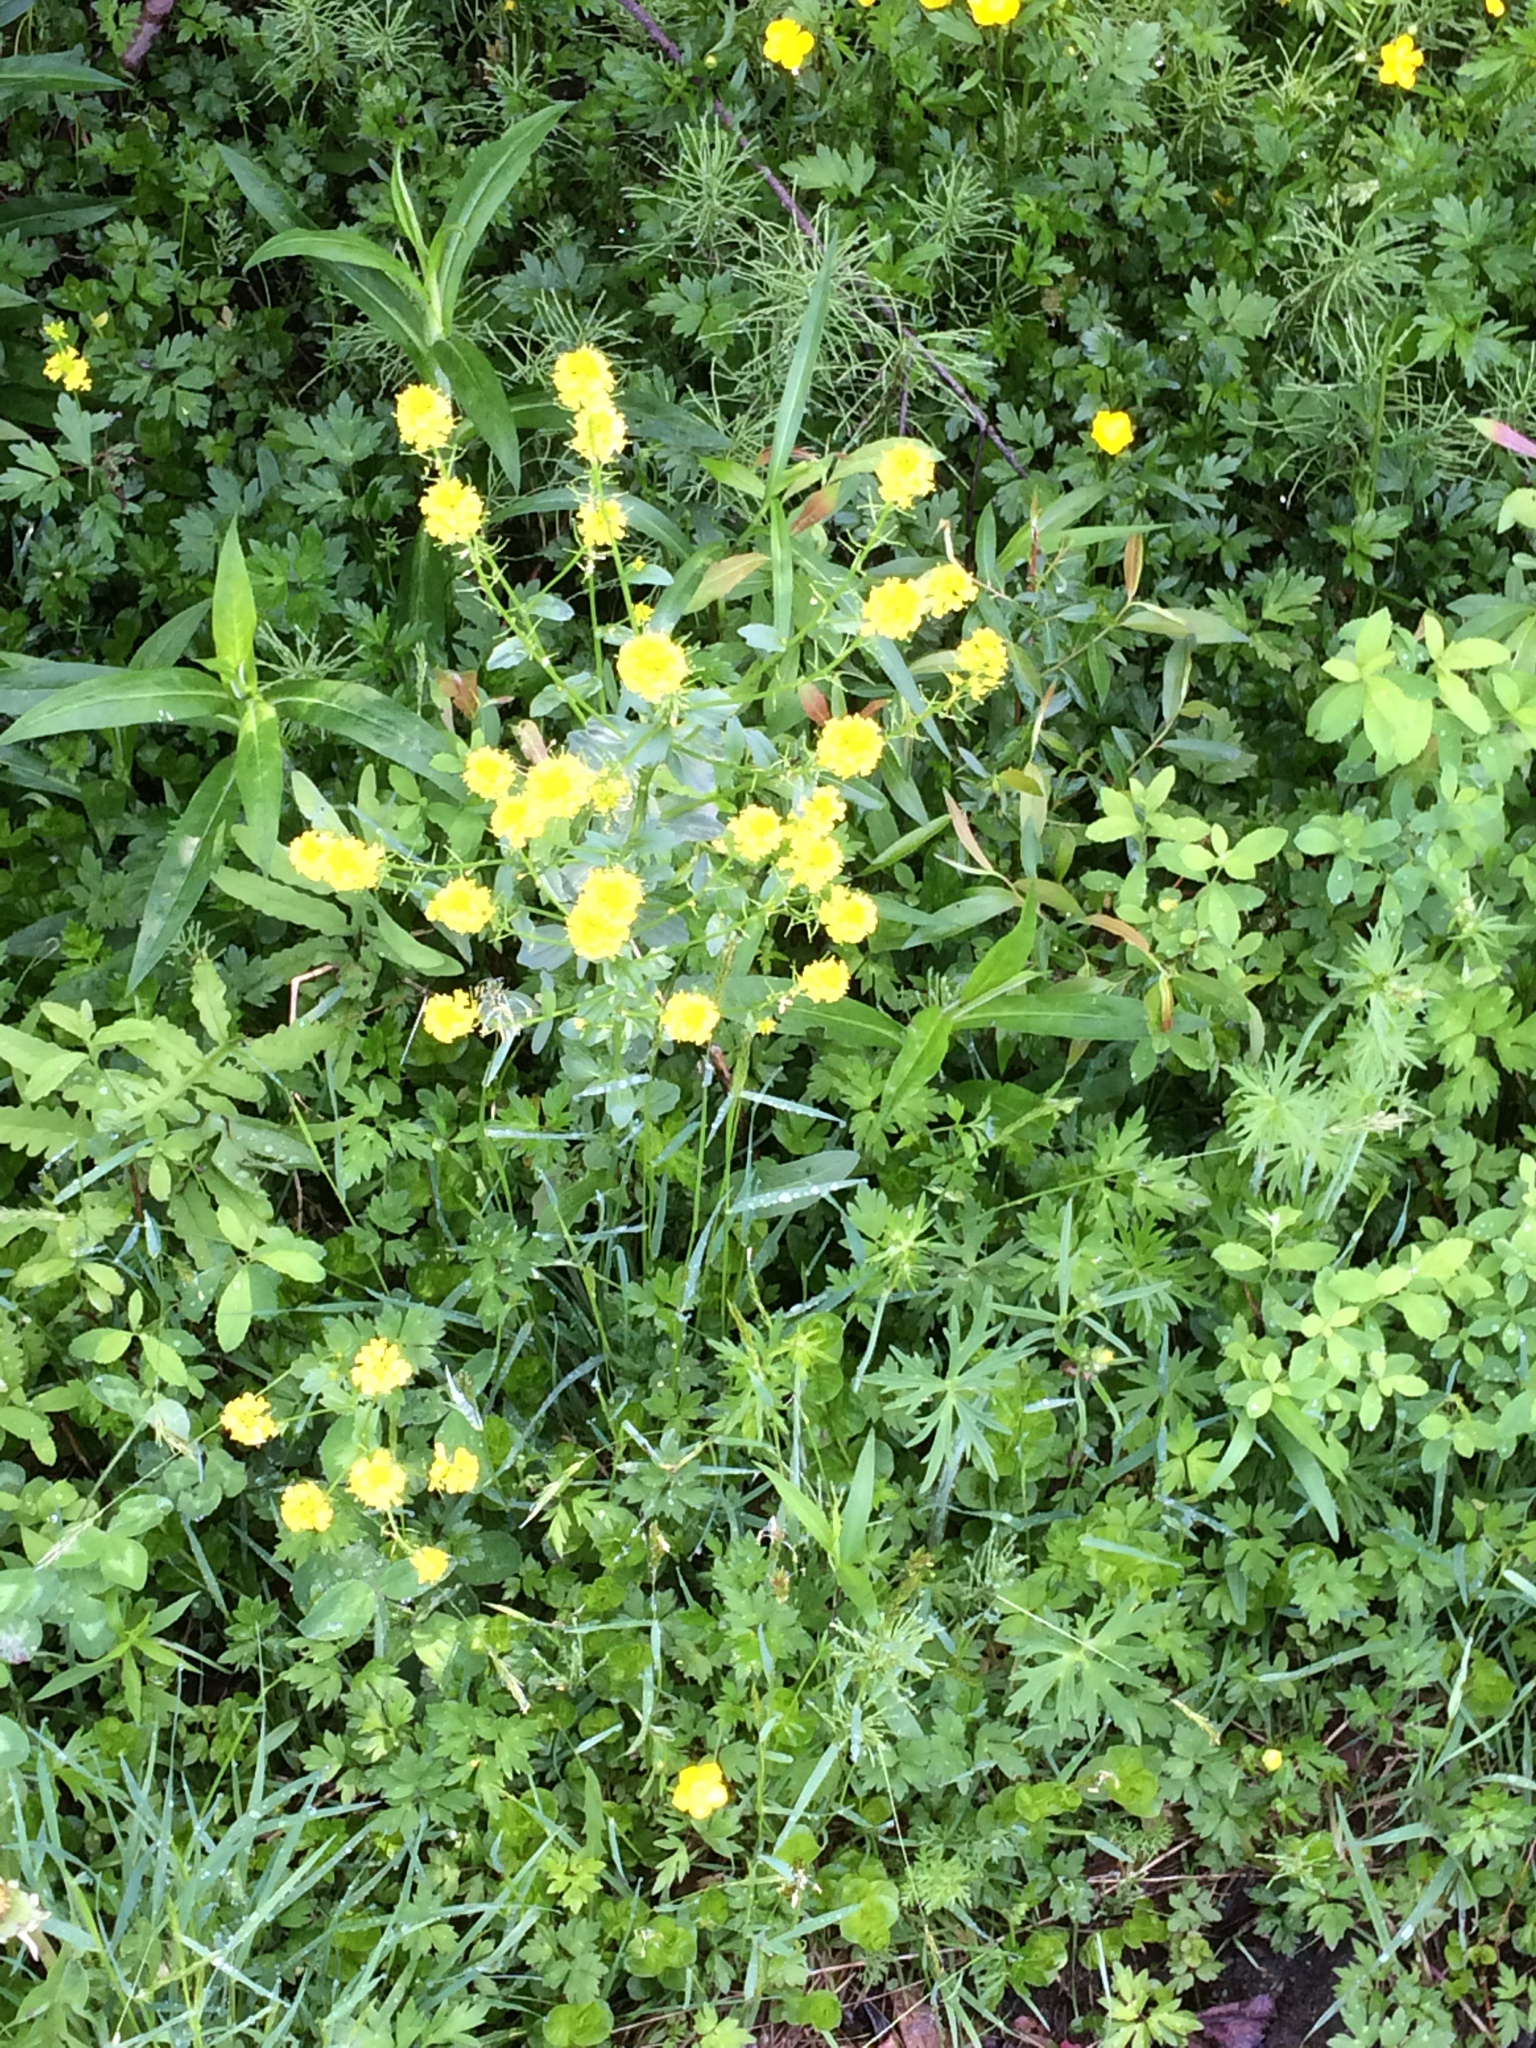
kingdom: Plantae
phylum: Tracheophyta
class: Magnoliopsida
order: Brassicales
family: Brassicaceae
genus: Barbarea
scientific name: Barbarea vulgaris
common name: Cressy-greens
